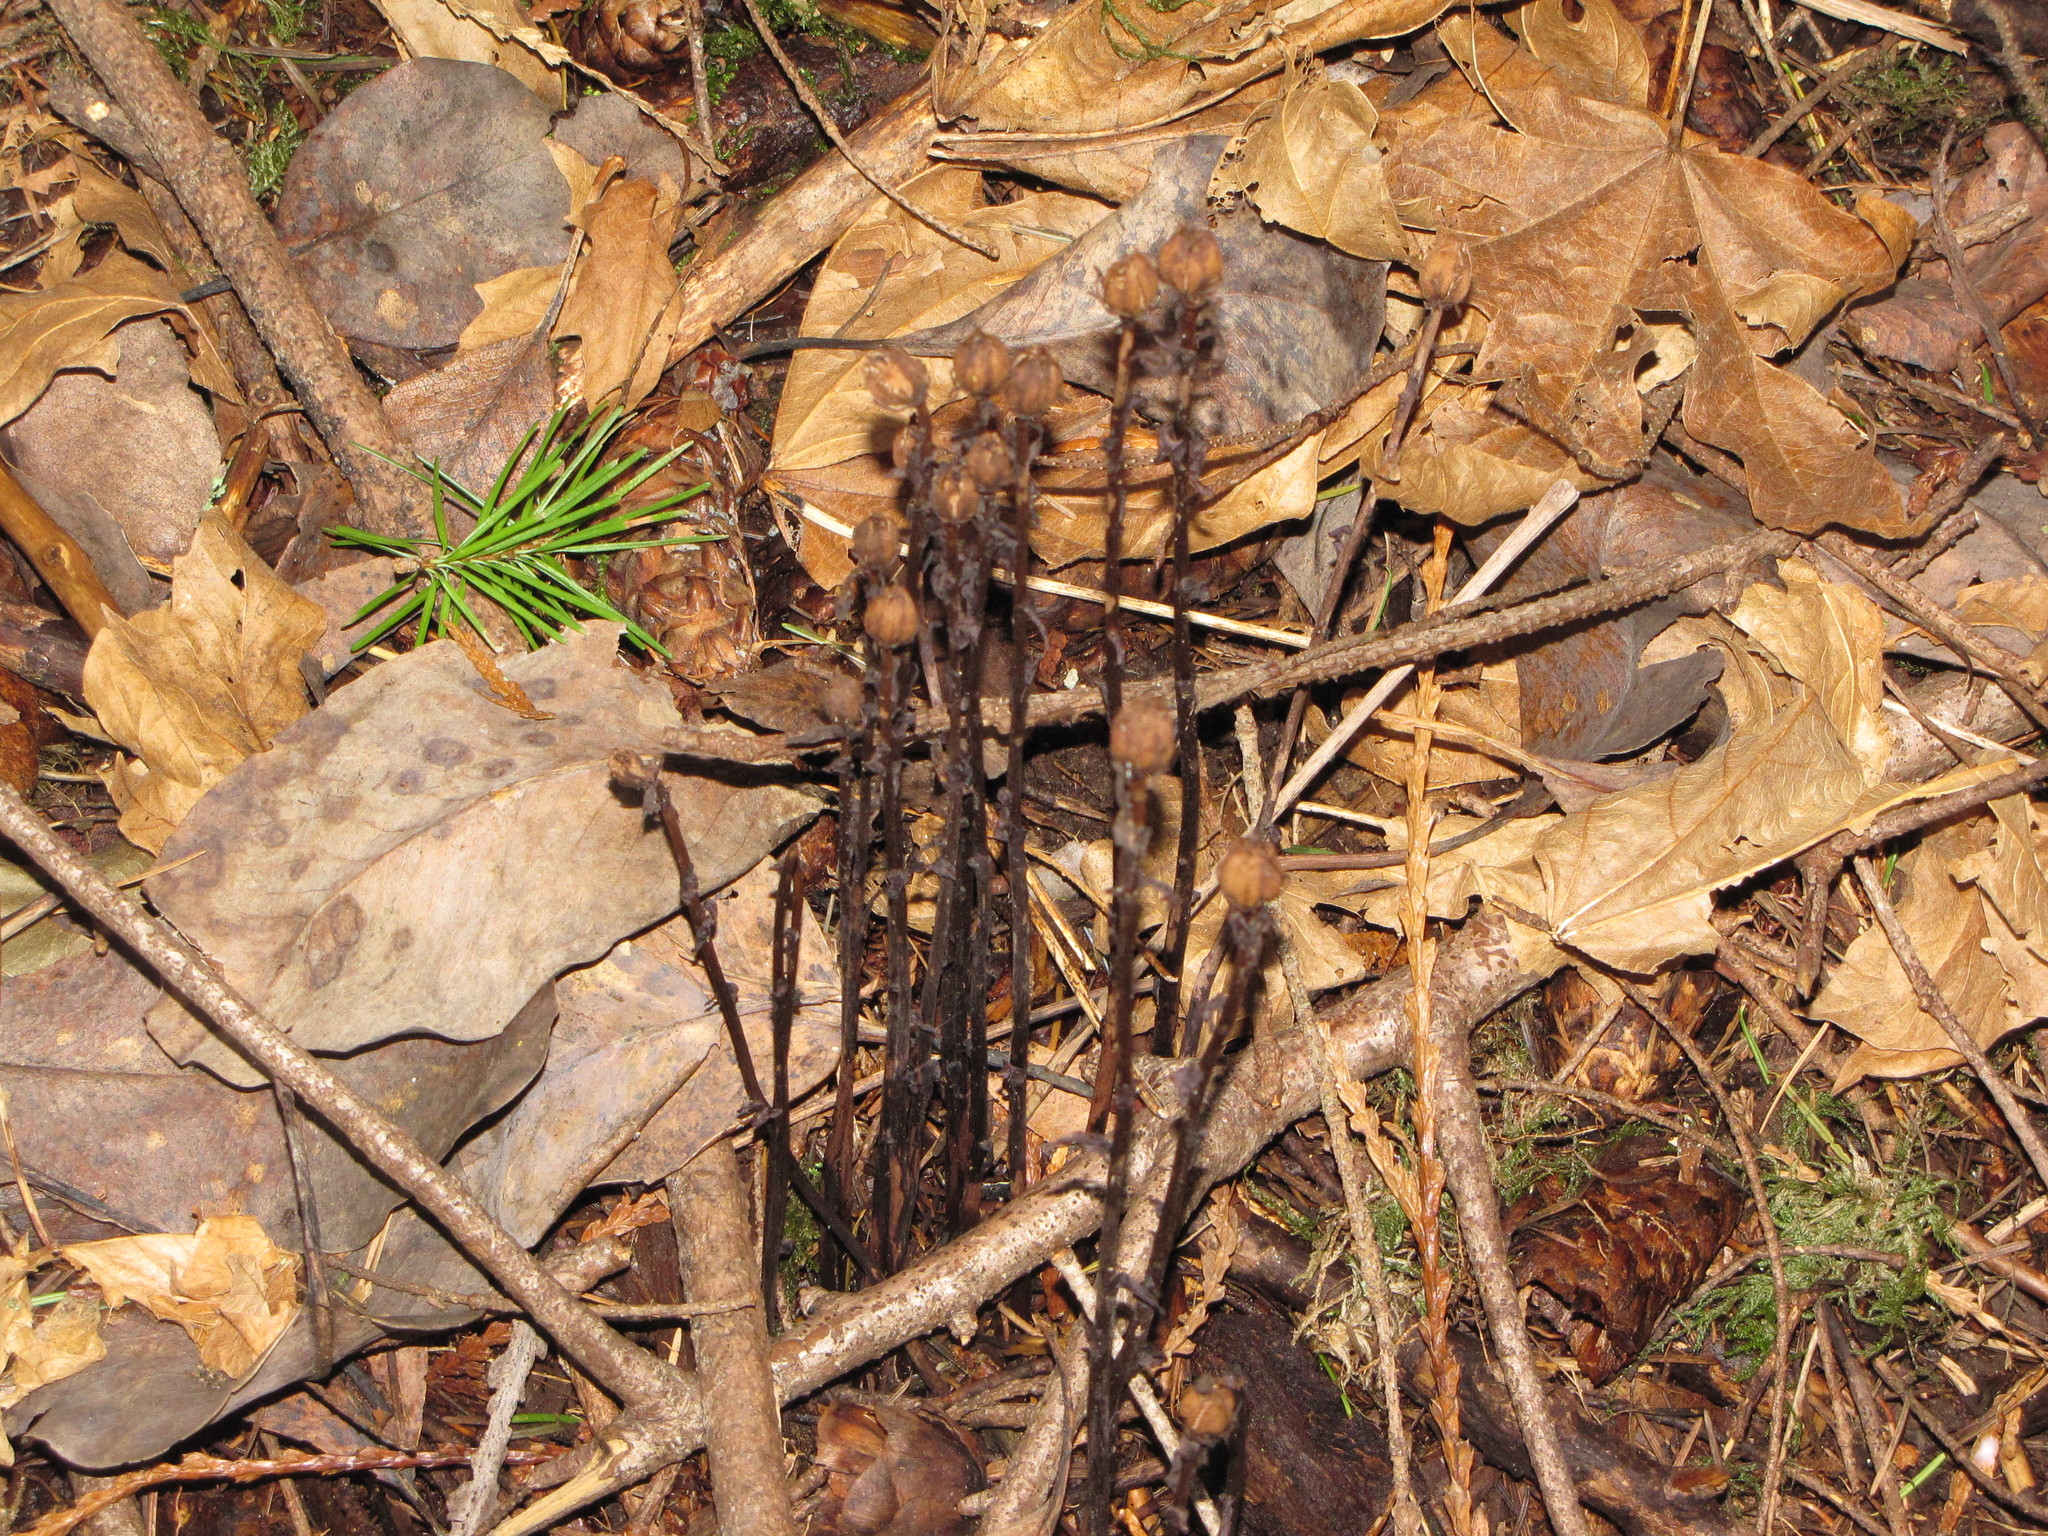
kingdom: Plantae
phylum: Tracheophyta
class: Magnoliopsida
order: Ericales
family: Ericaceae
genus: Monotropa
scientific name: Monotropa uniflora
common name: Convulsion root
